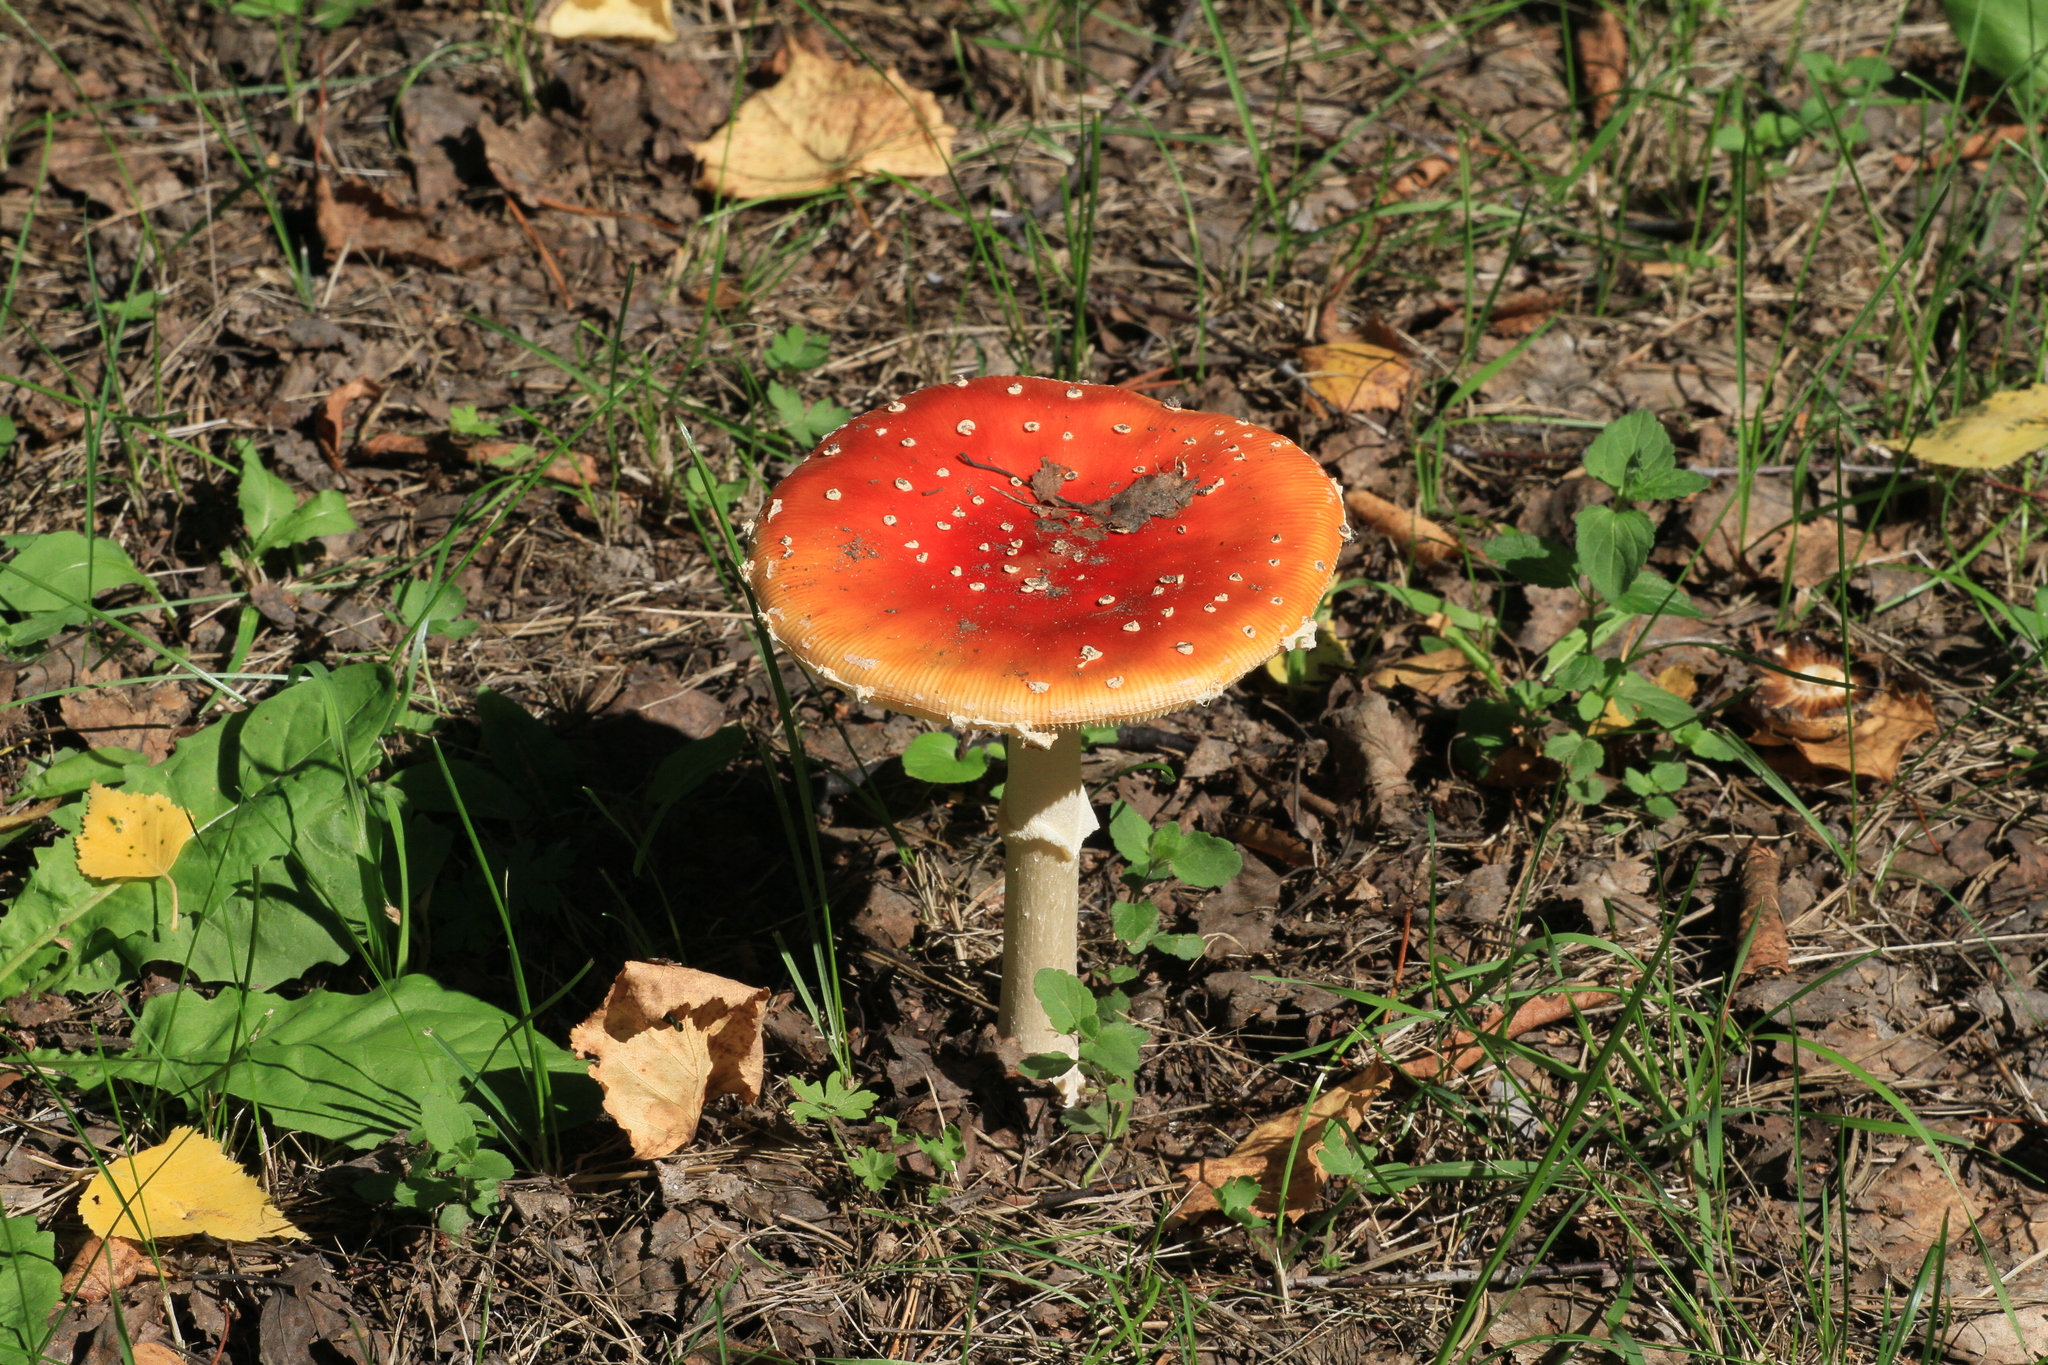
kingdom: Fungi
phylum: Basidiomycota
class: Agaricomycetes
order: Agaricales
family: Amanitaceae
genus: Amanita
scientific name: Amanita muscaria
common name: Fly agaric
